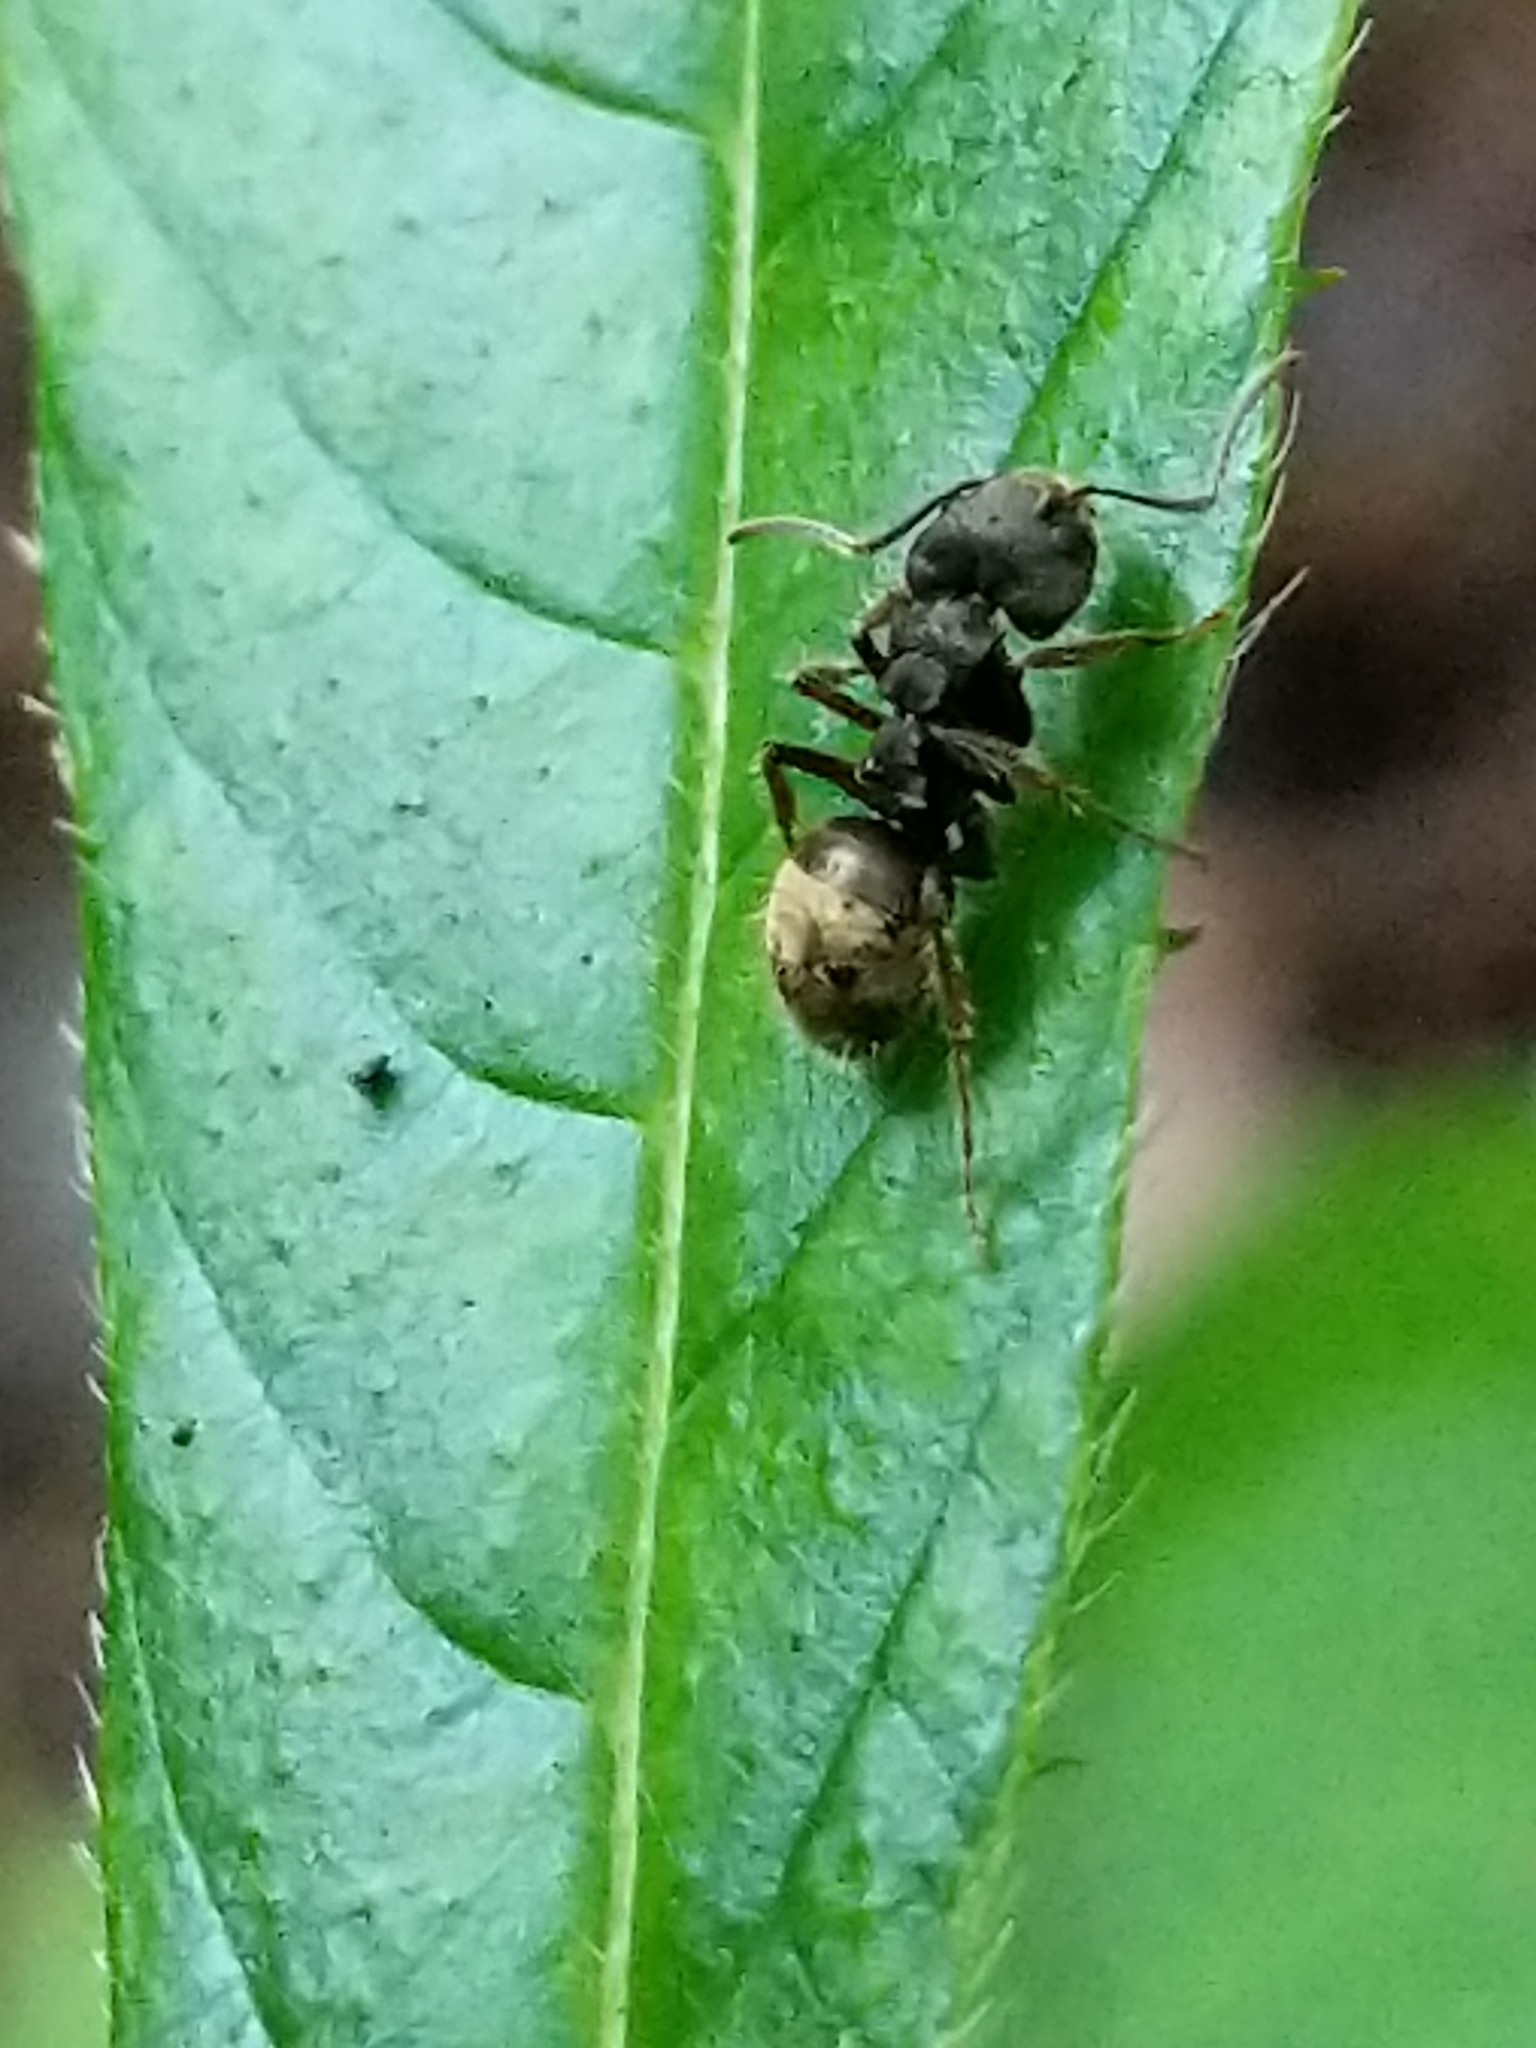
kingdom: Animalia
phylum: Arthropoda
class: Insecta
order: Hymenoptera
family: Formicidae
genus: Dolichoderus
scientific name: Dolichoderus bispinosus
